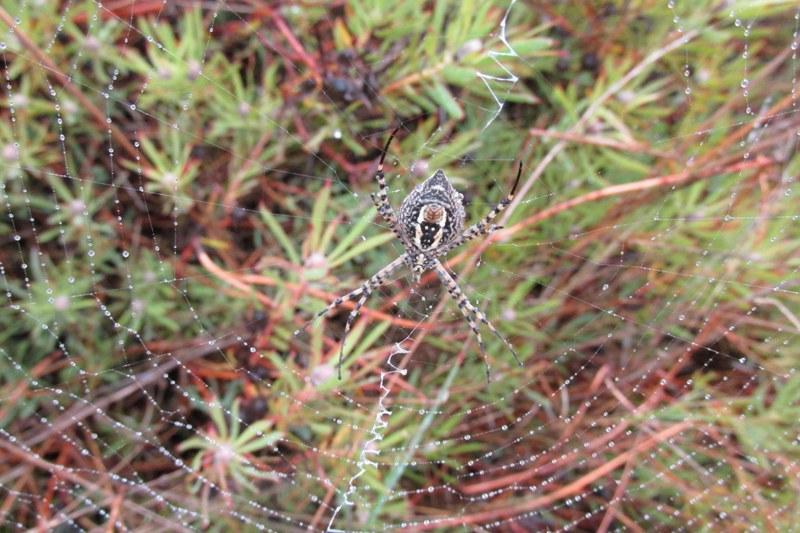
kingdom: Animalia
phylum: Arthropoda
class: Arachnida
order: Araneae
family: Araneidae
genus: Argiope
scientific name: Argiope trifasciata
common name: Banded garden spider
